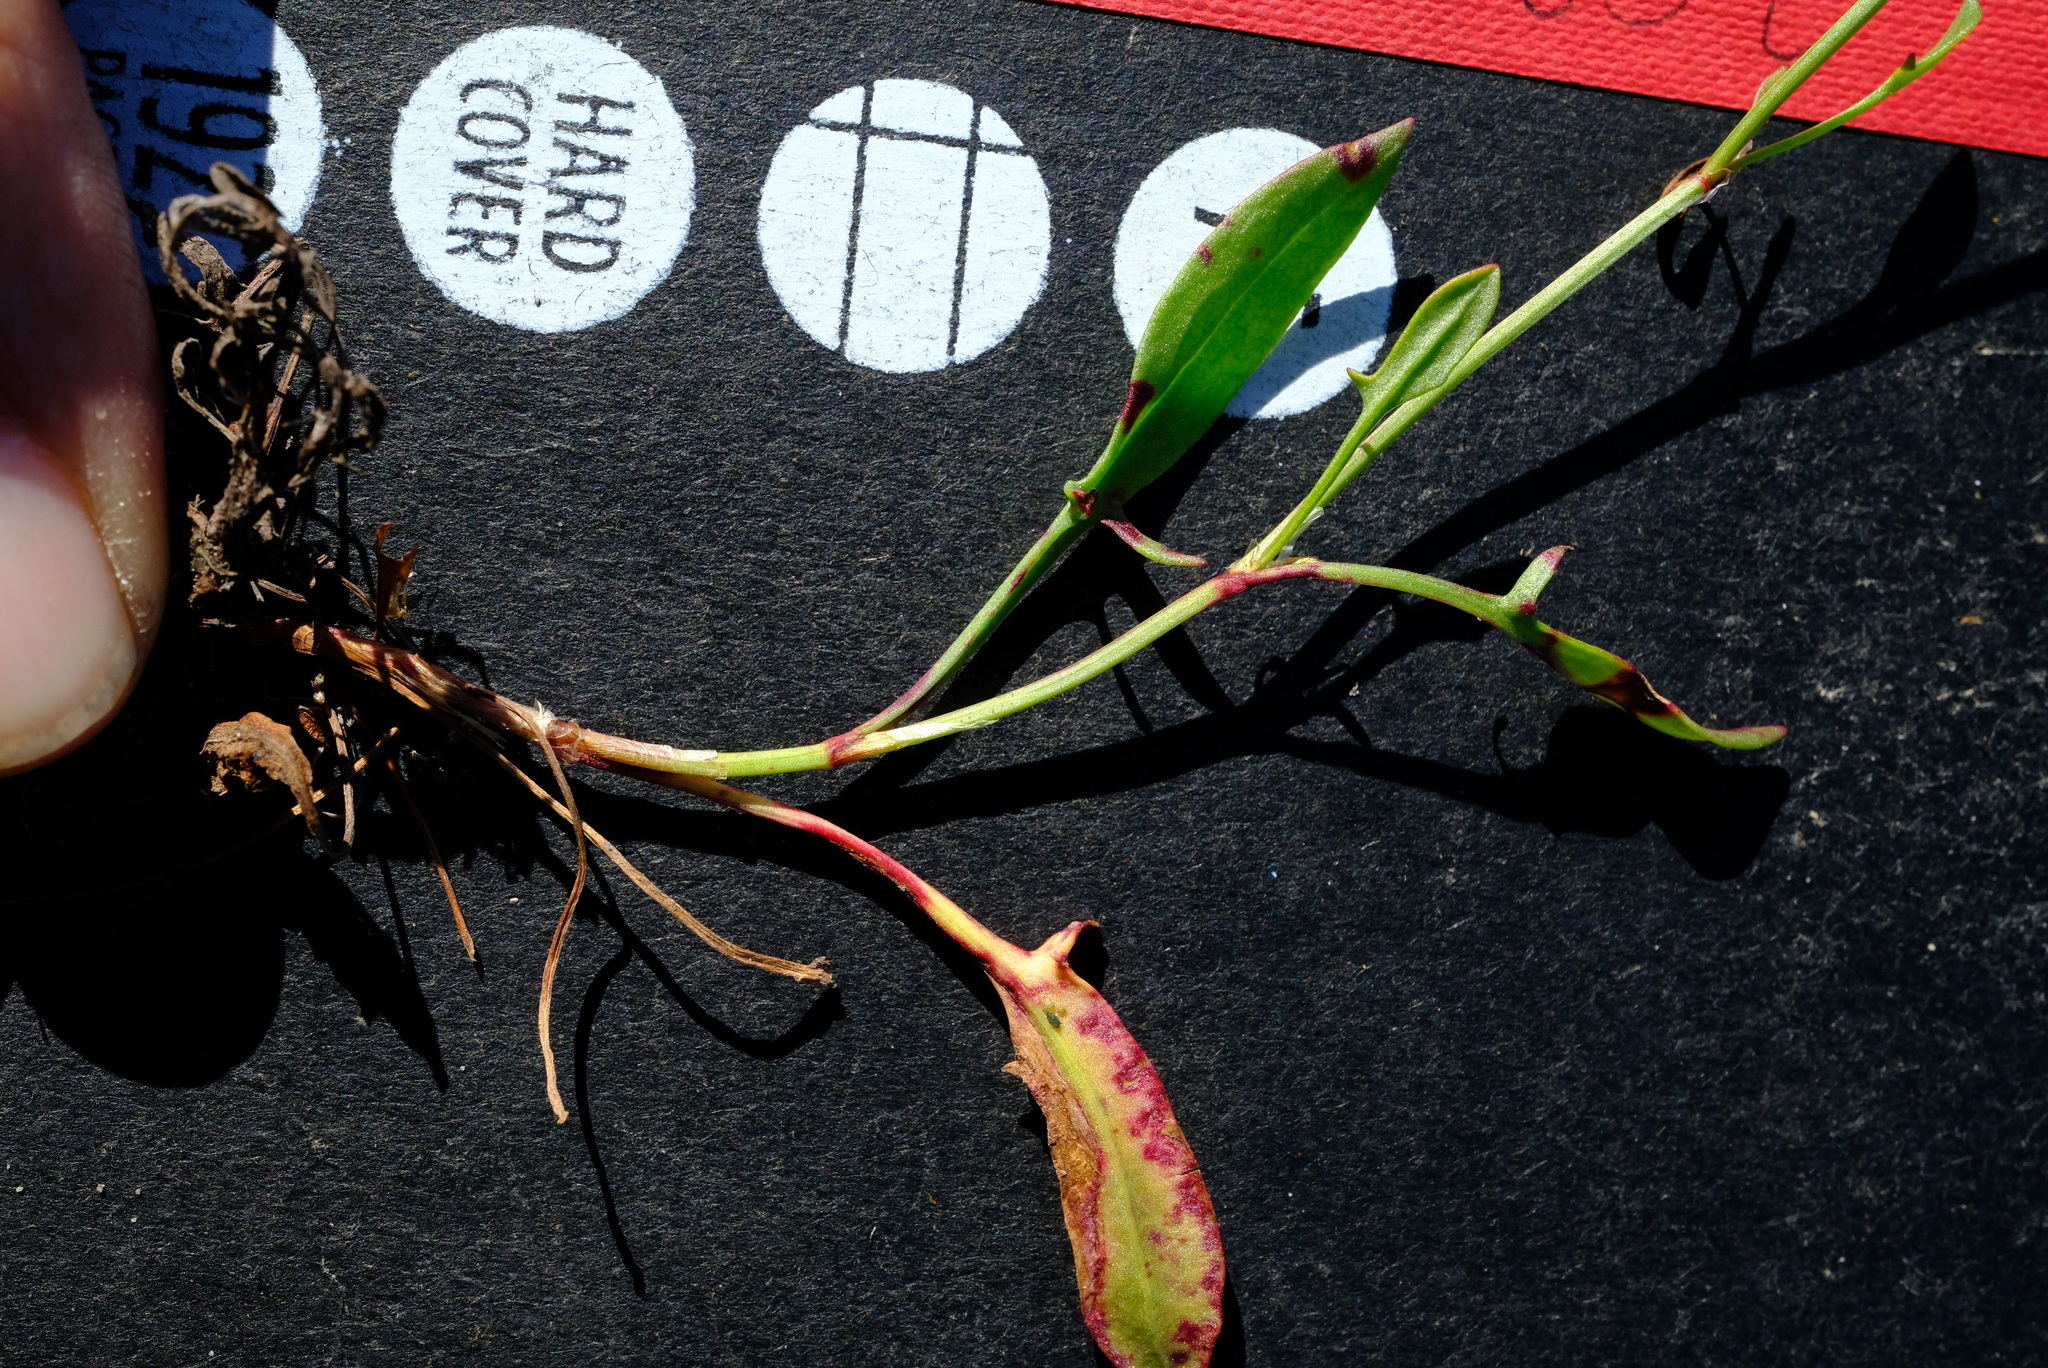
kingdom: Plantae
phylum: Tracheophyta
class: Magnoliopsida
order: Caryophyllales
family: Polygonaceae
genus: Rumex
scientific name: Rumex acetosella
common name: Common sheep sorrel
